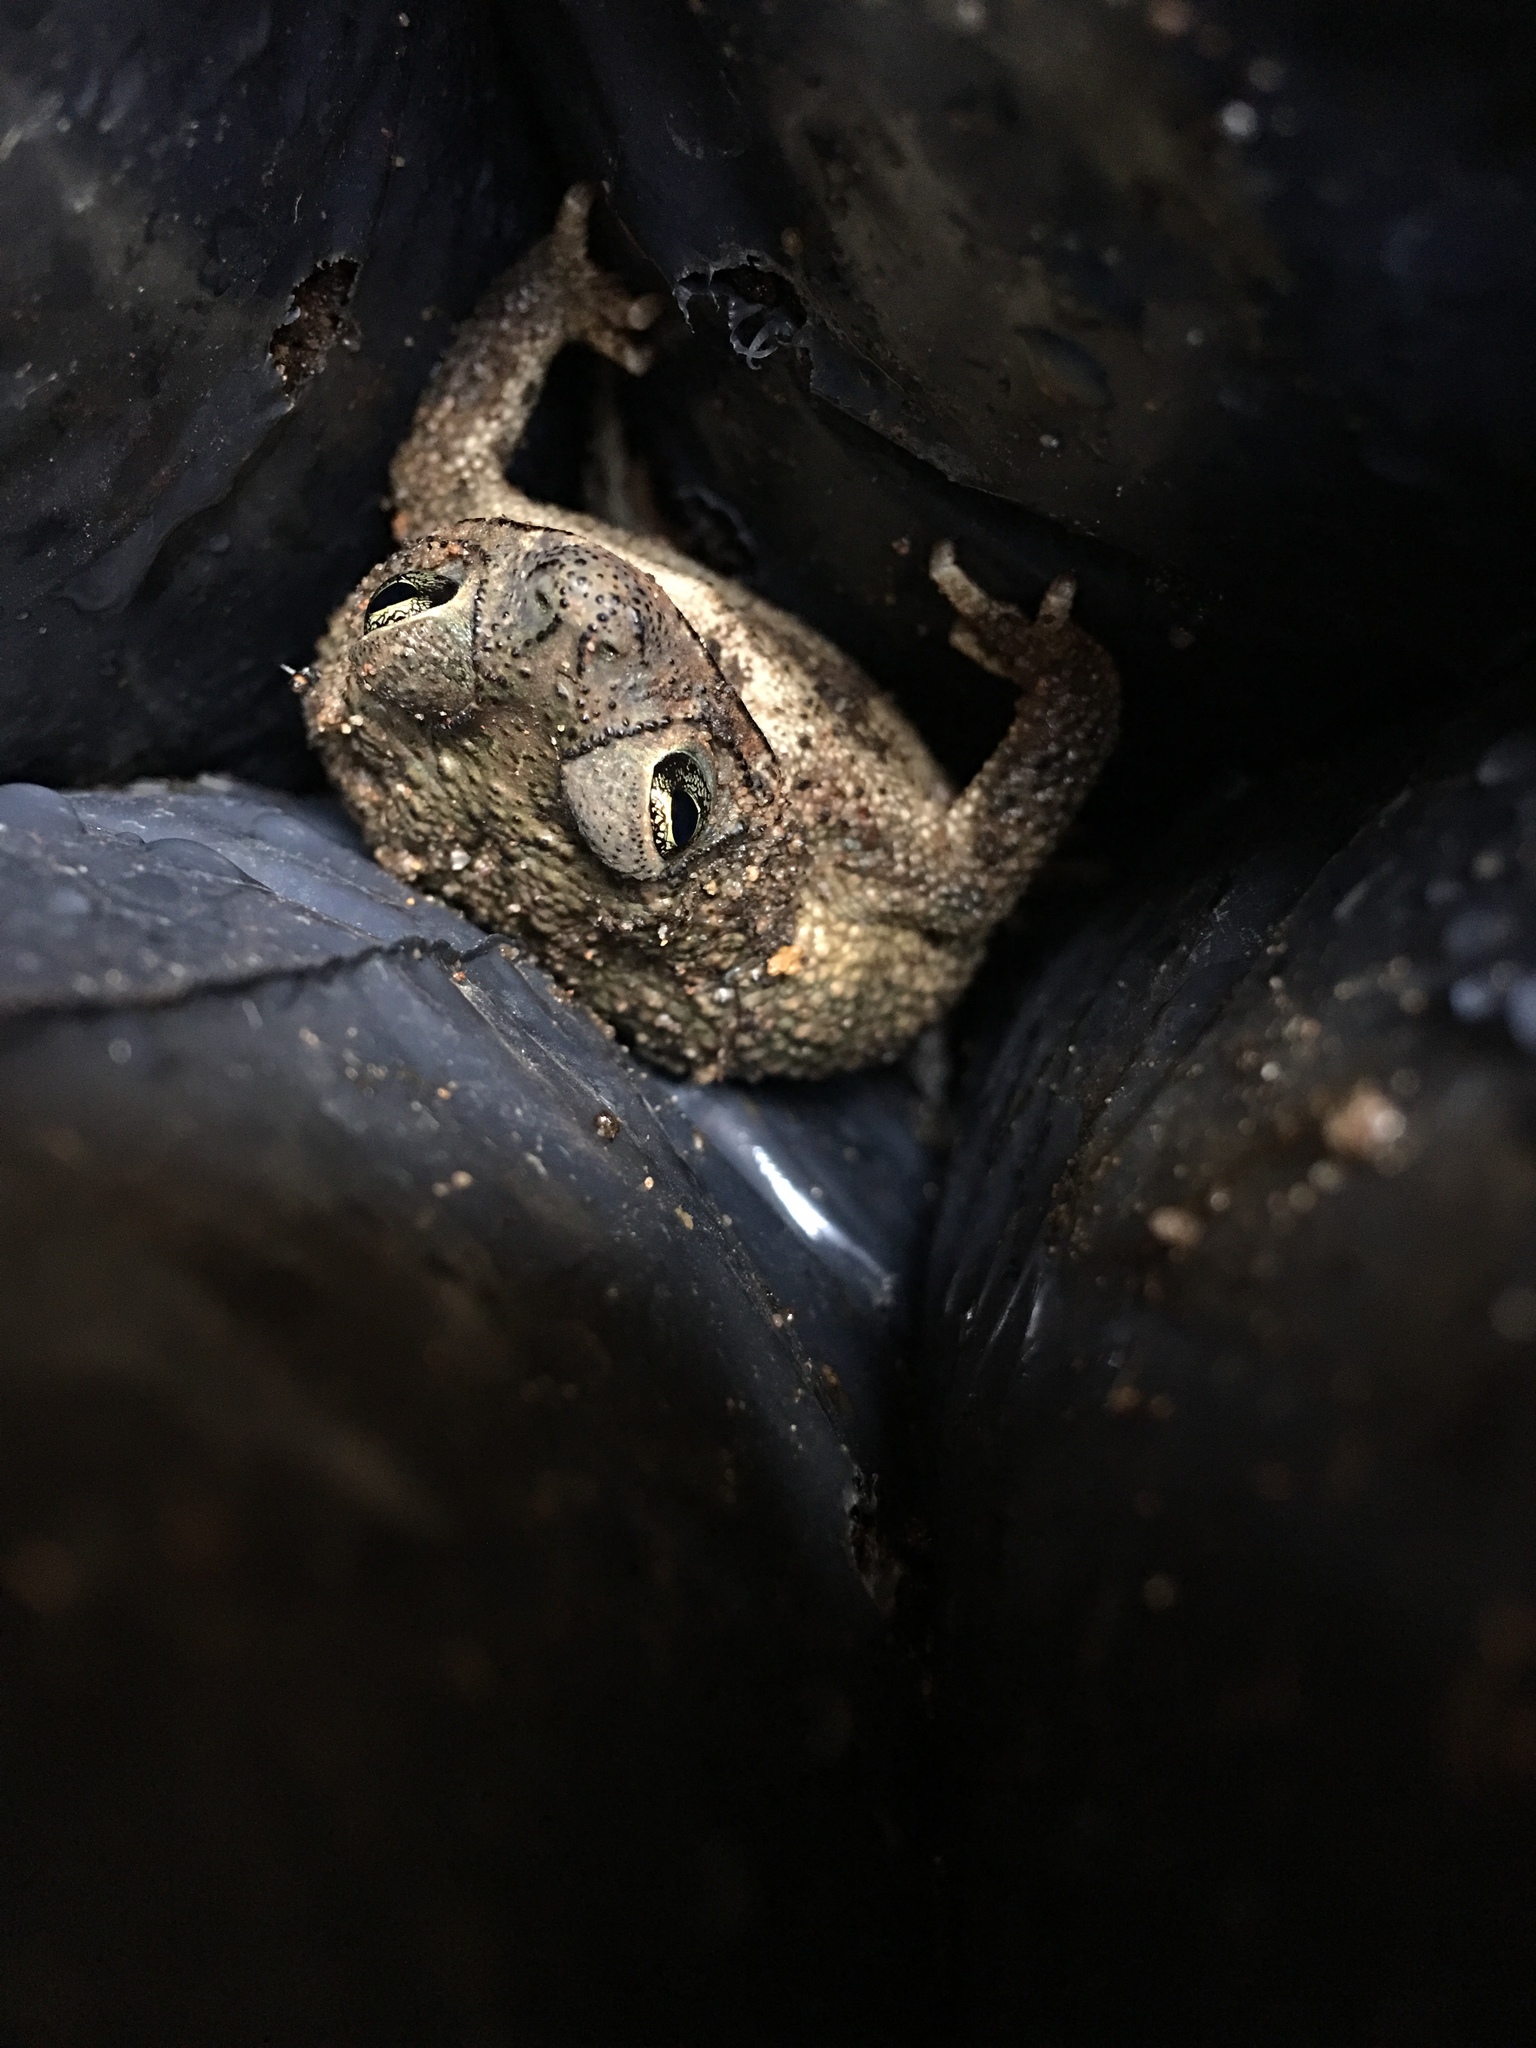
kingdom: Animalia
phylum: Chordata
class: Amphibia
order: Anura
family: Bufonidae
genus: Rhinella
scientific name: Rhinella granulosa
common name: Common lesser toad
